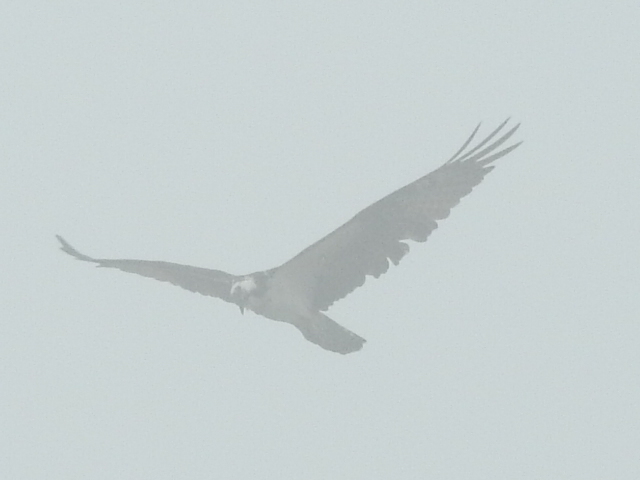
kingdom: Animalia
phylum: Chordata
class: Aves
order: Accipitriformes
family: Pandionidae
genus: Pandion
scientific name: Pandion haliaetus
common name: Osprey
